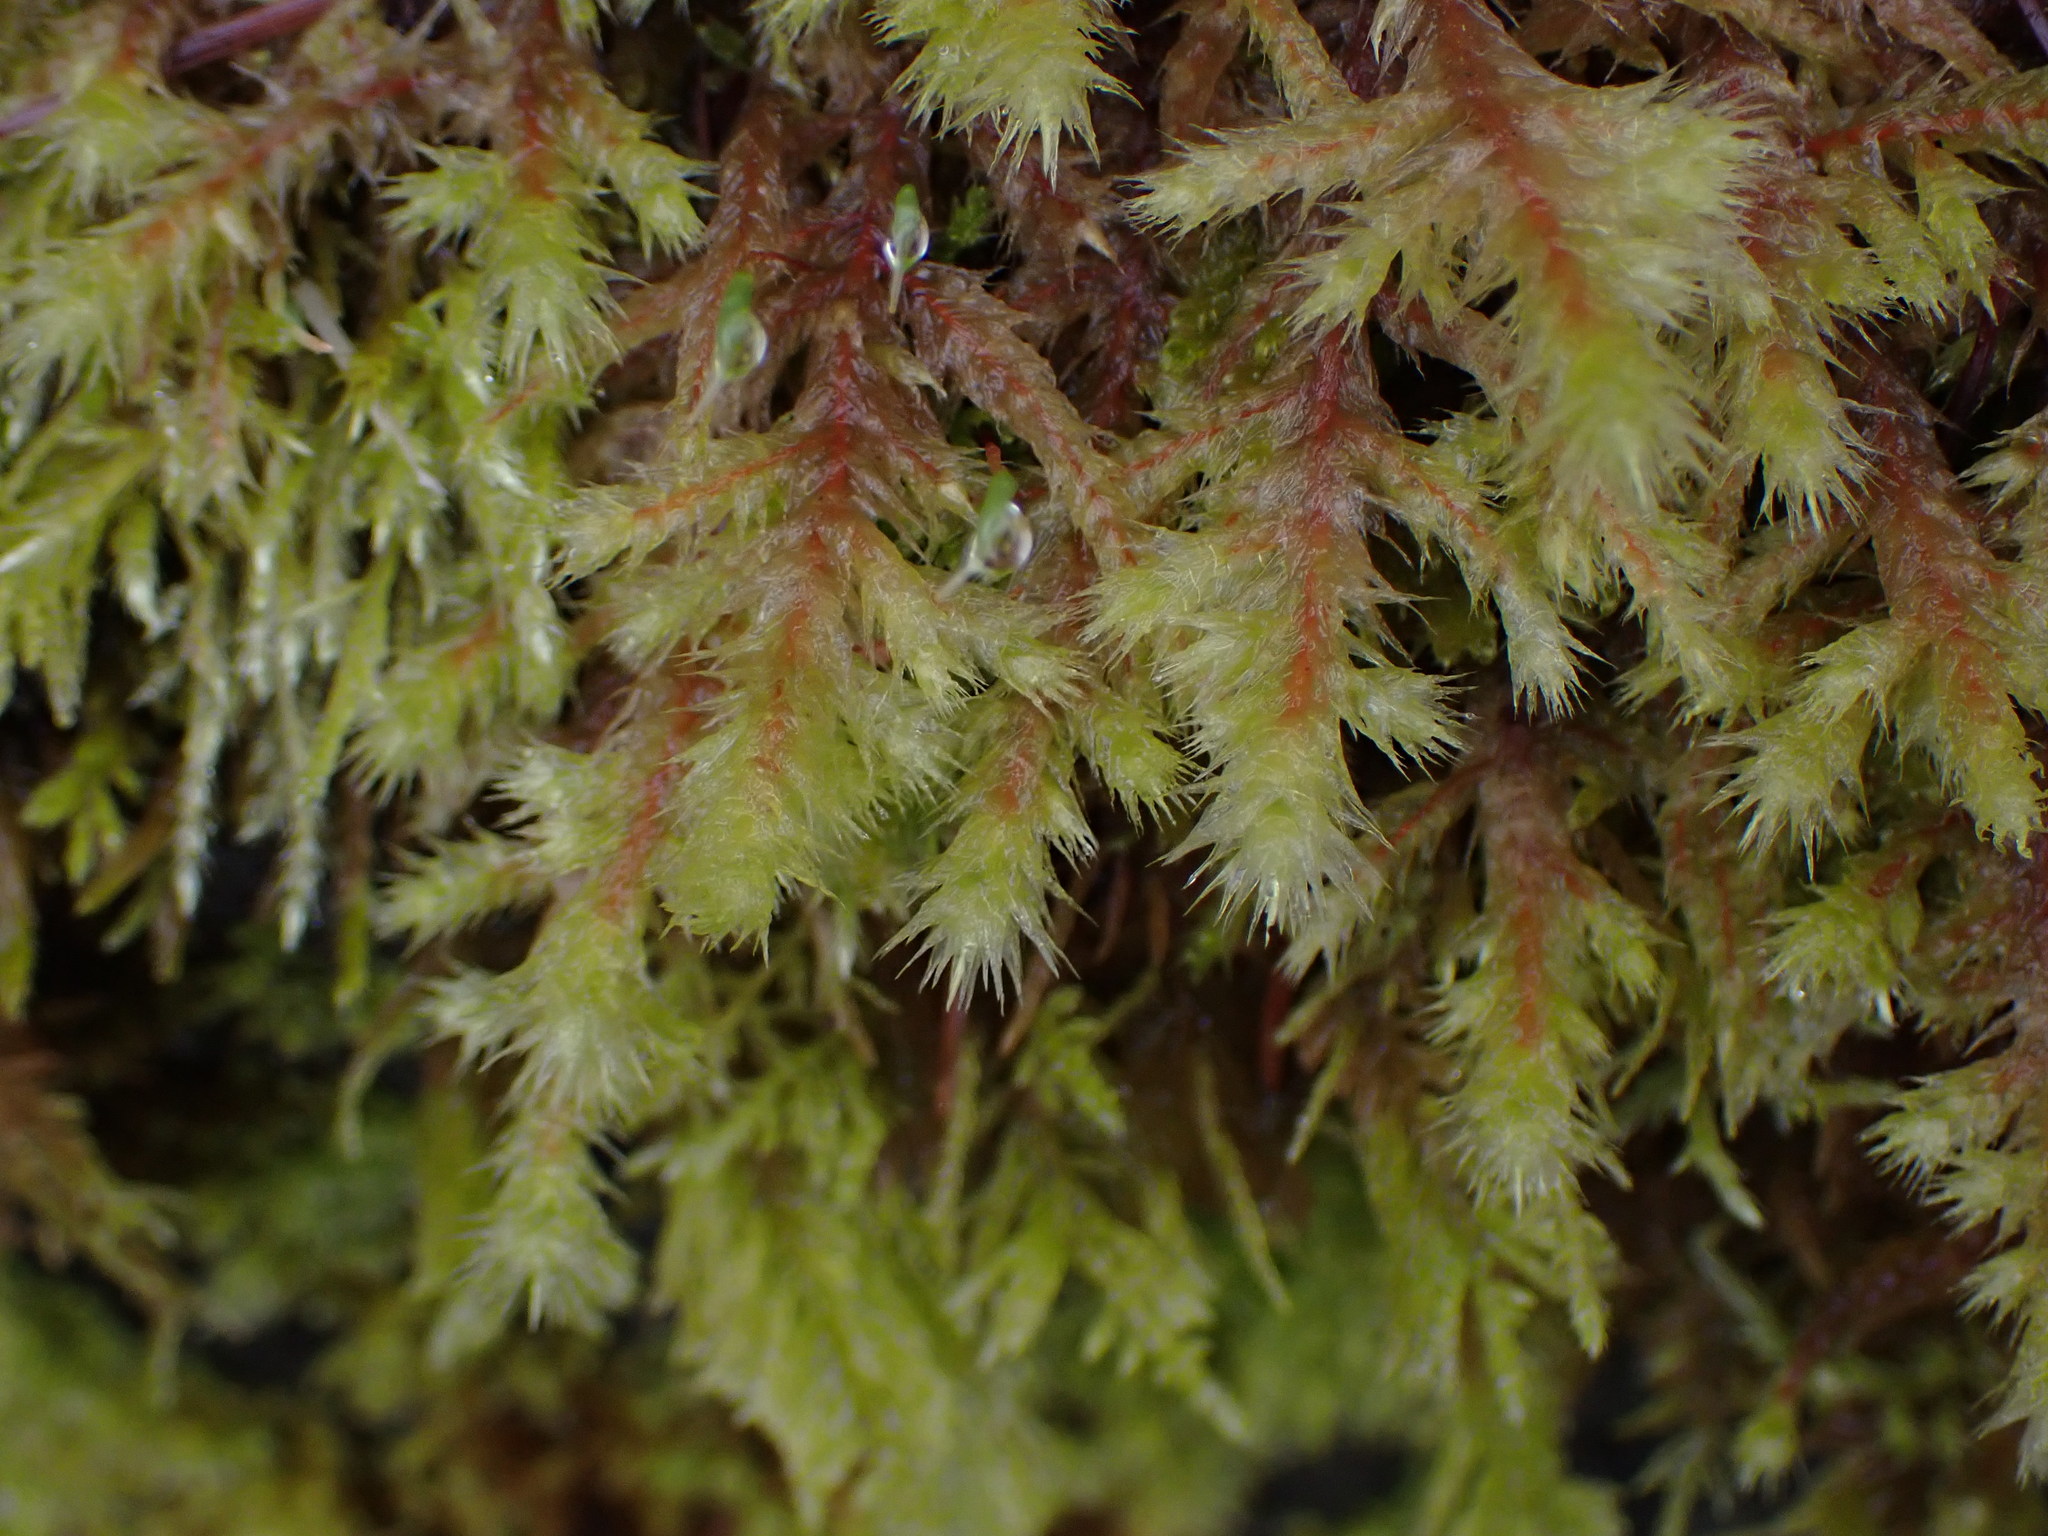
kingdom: Plantae
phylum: Bryophyta
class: Bryopsida
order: Hypnales
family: Hylocomiaceae
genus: Hylocomiadelphus
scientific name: Hylocomiadelphus triquetrus
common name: Rough goose neck moss
